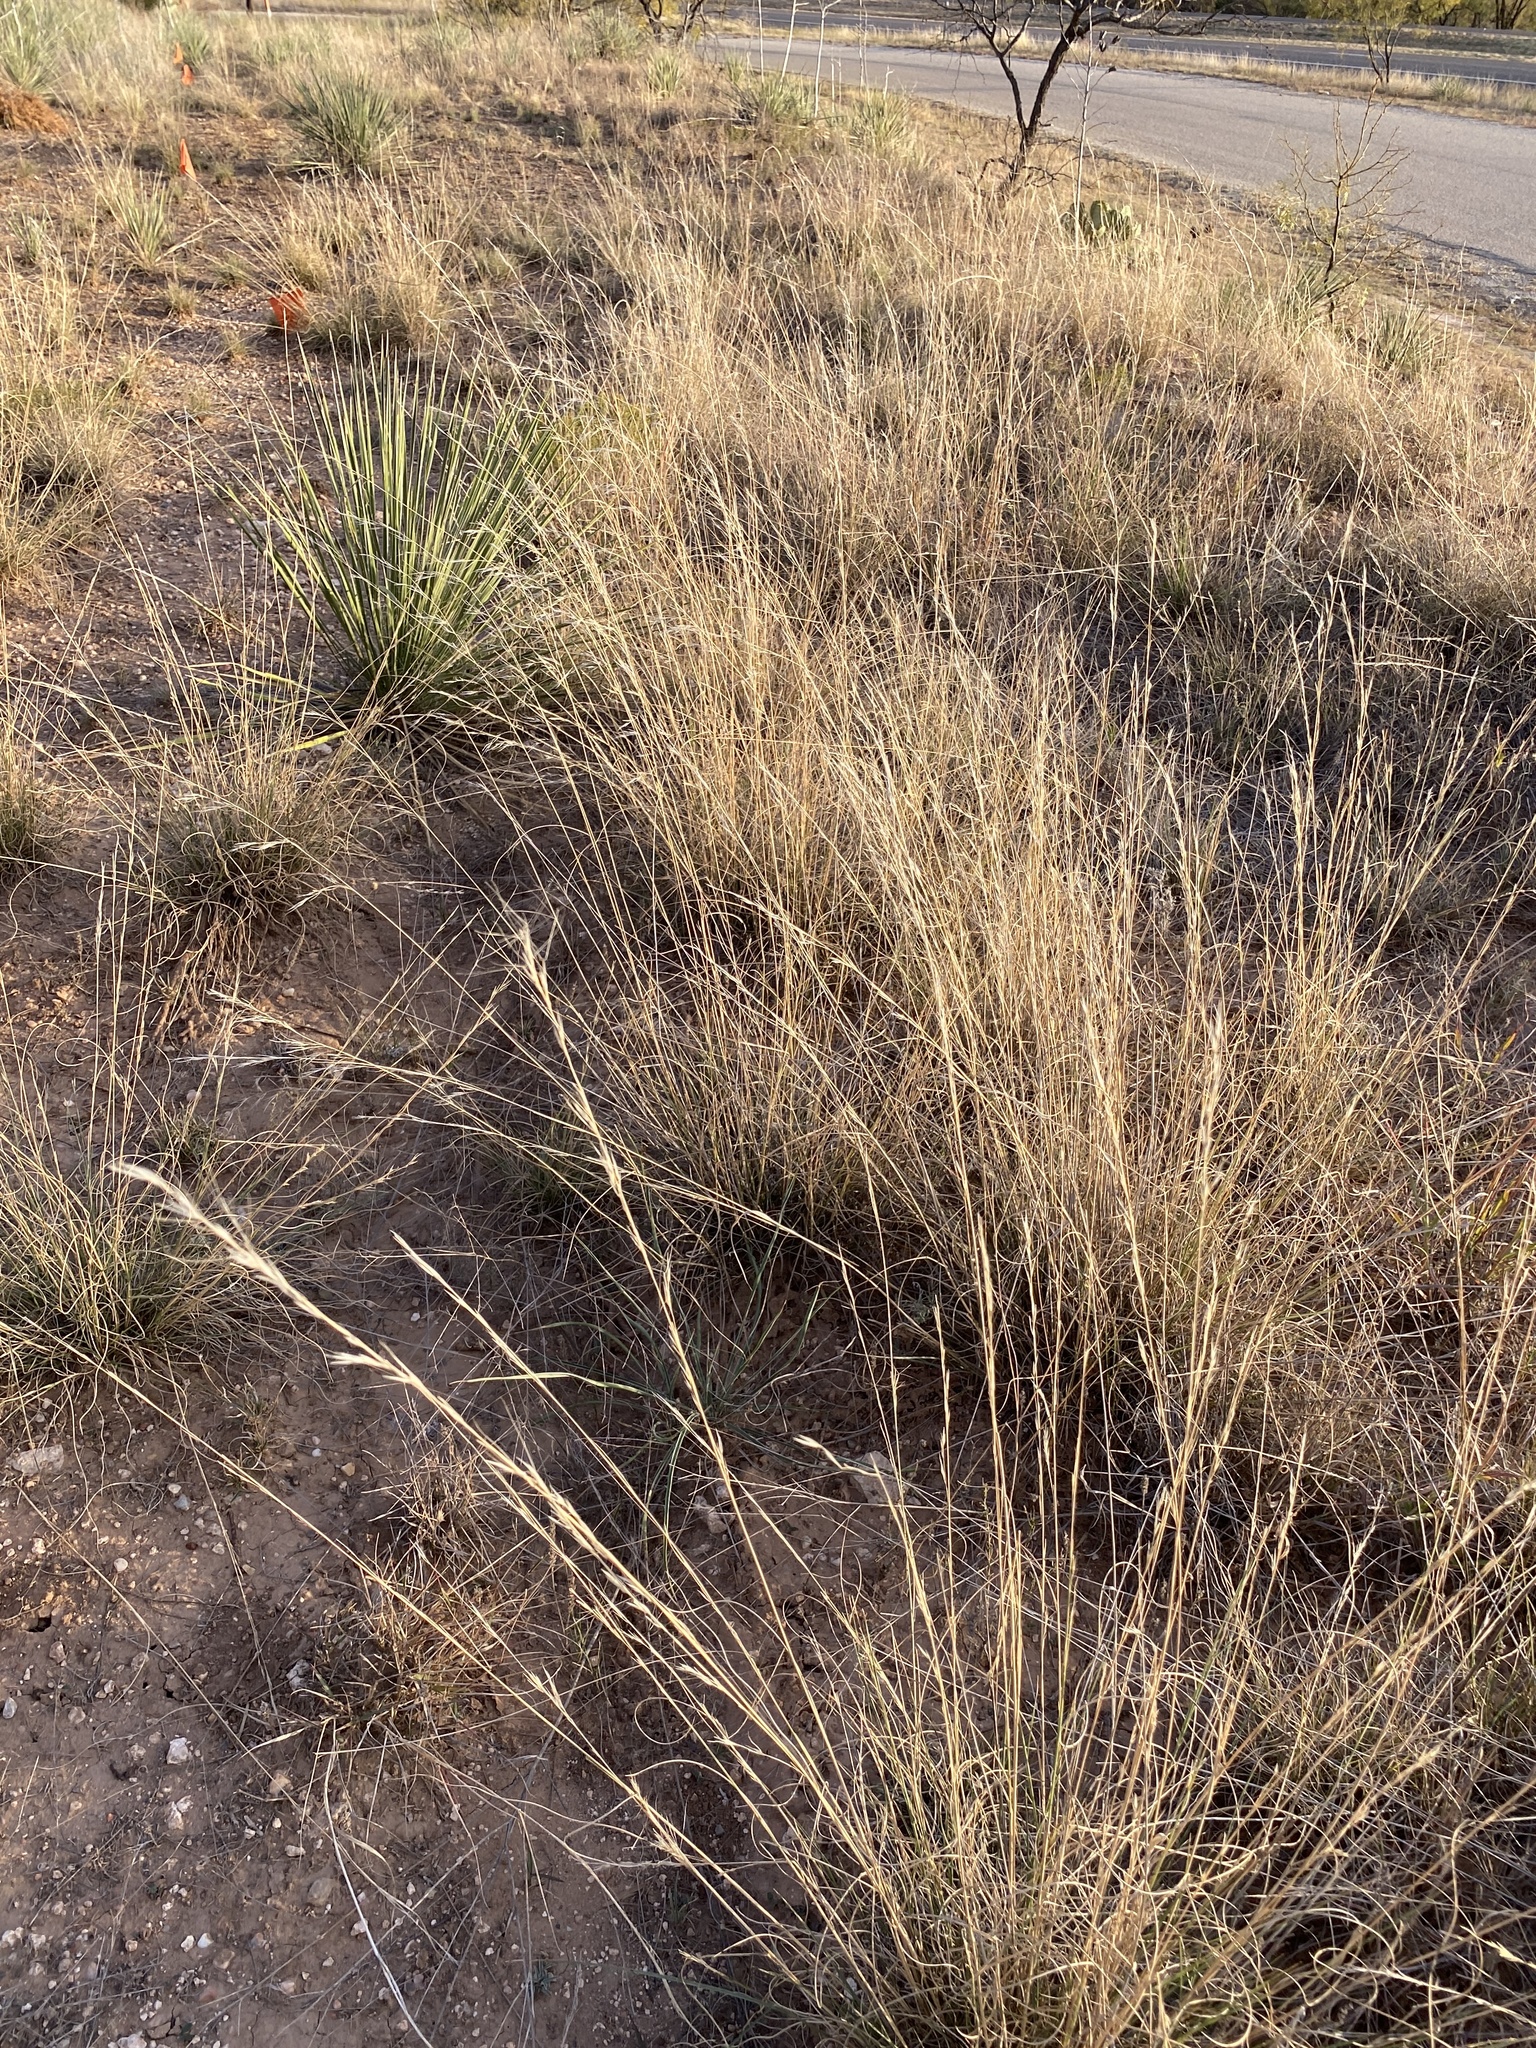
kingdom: Plantae
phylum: Tracheophyta
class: Liliopsida
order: Poales
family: Poaceae
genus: Aristida
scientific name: Aristida purpurea
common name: Purple threeawn
